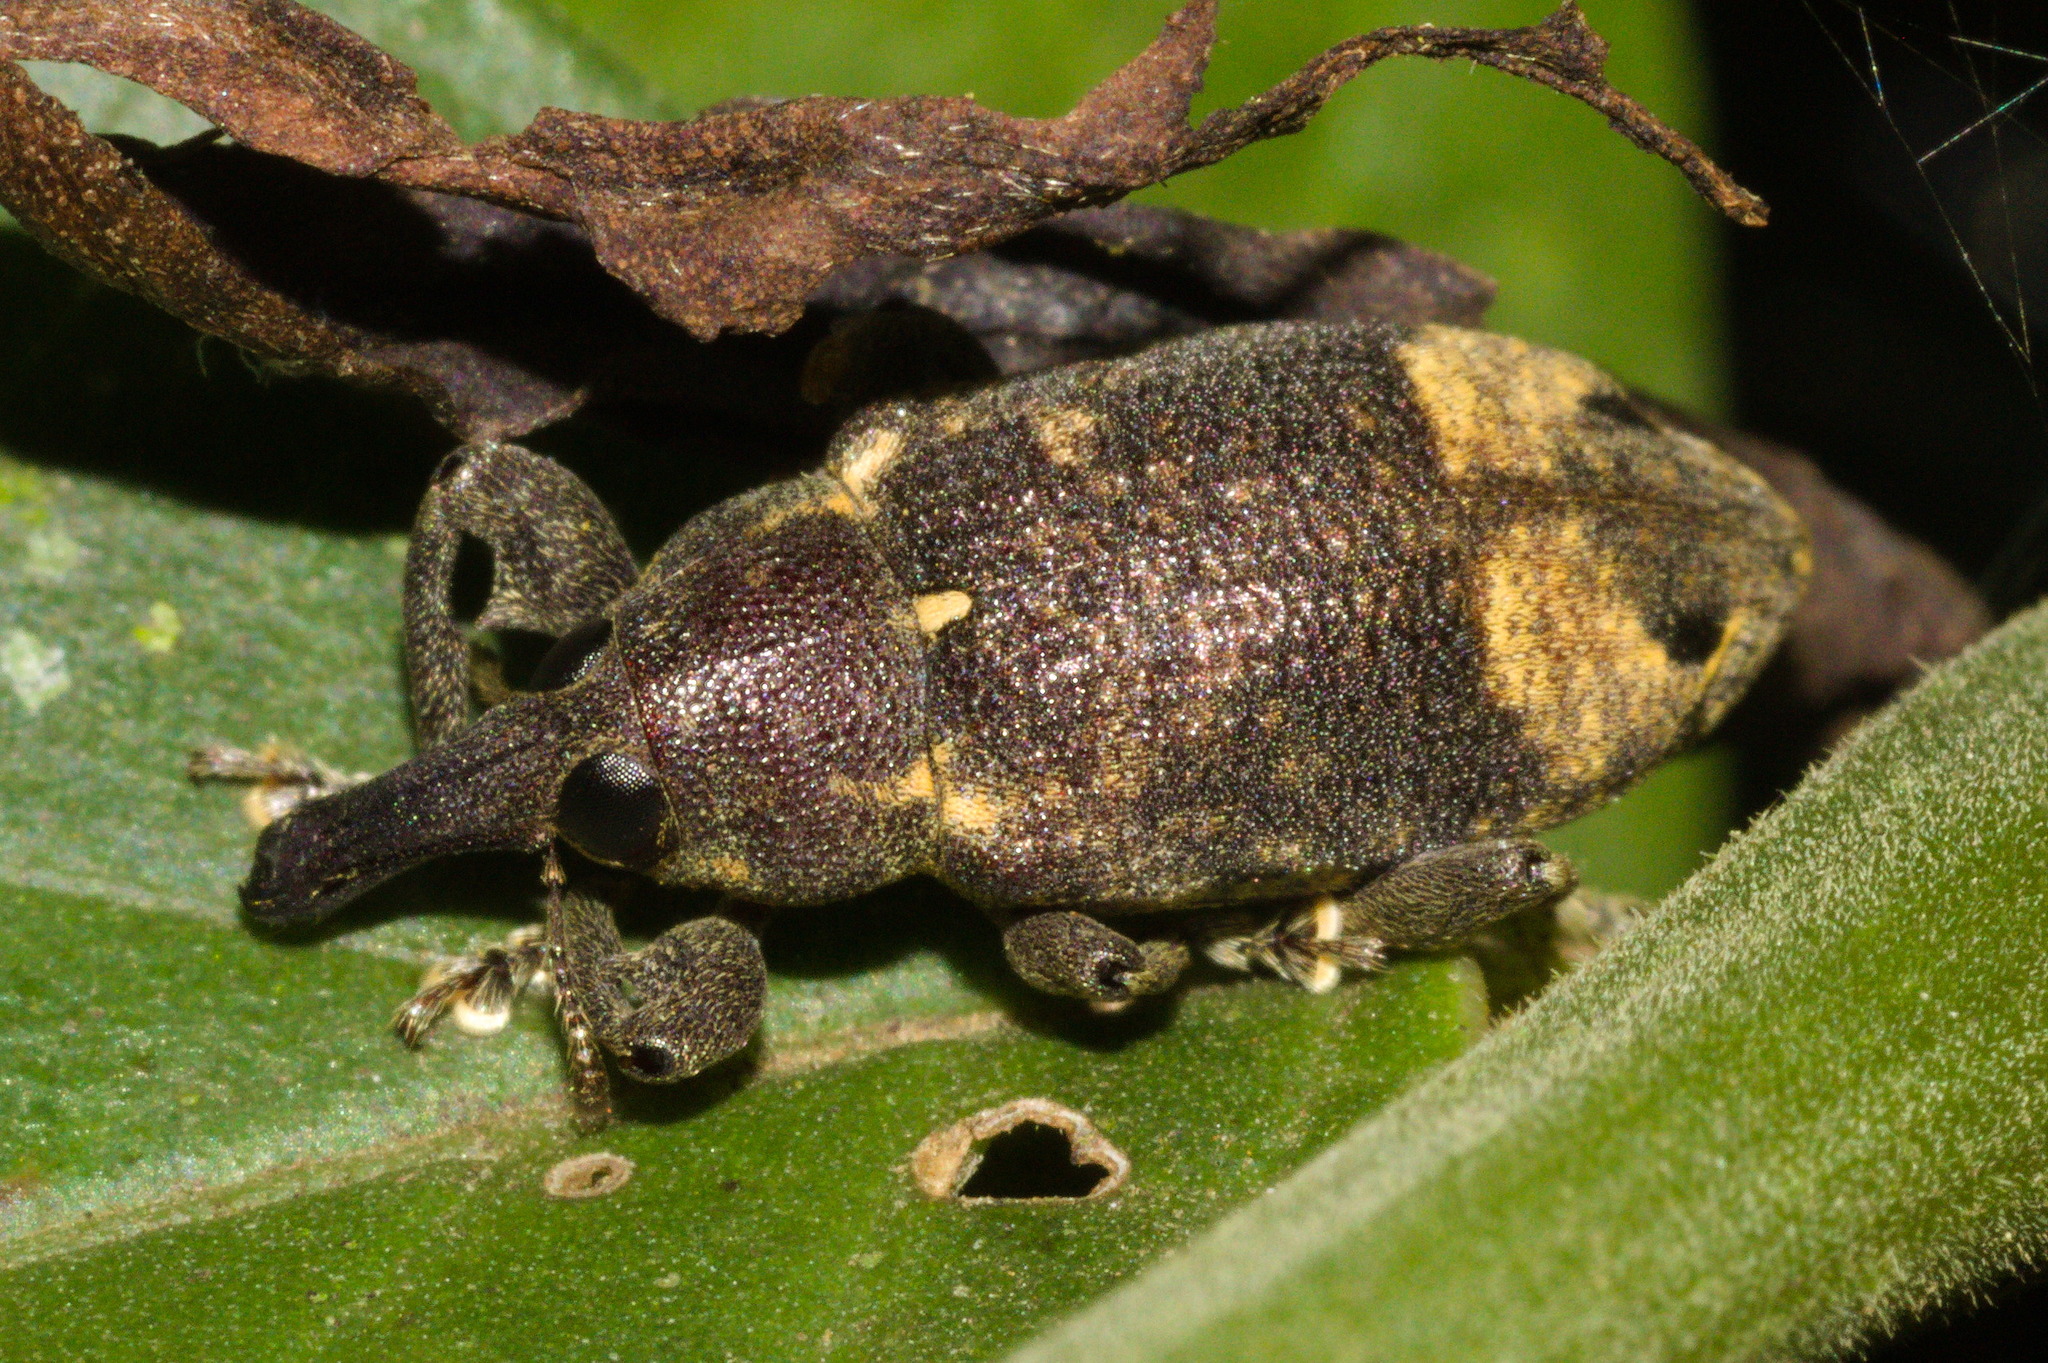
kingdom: Animalia
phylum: Arthropoda
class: Insecta
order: Coleoptera
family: Curculionidae
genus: Arniticus
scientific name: Arniticus hylobioides
